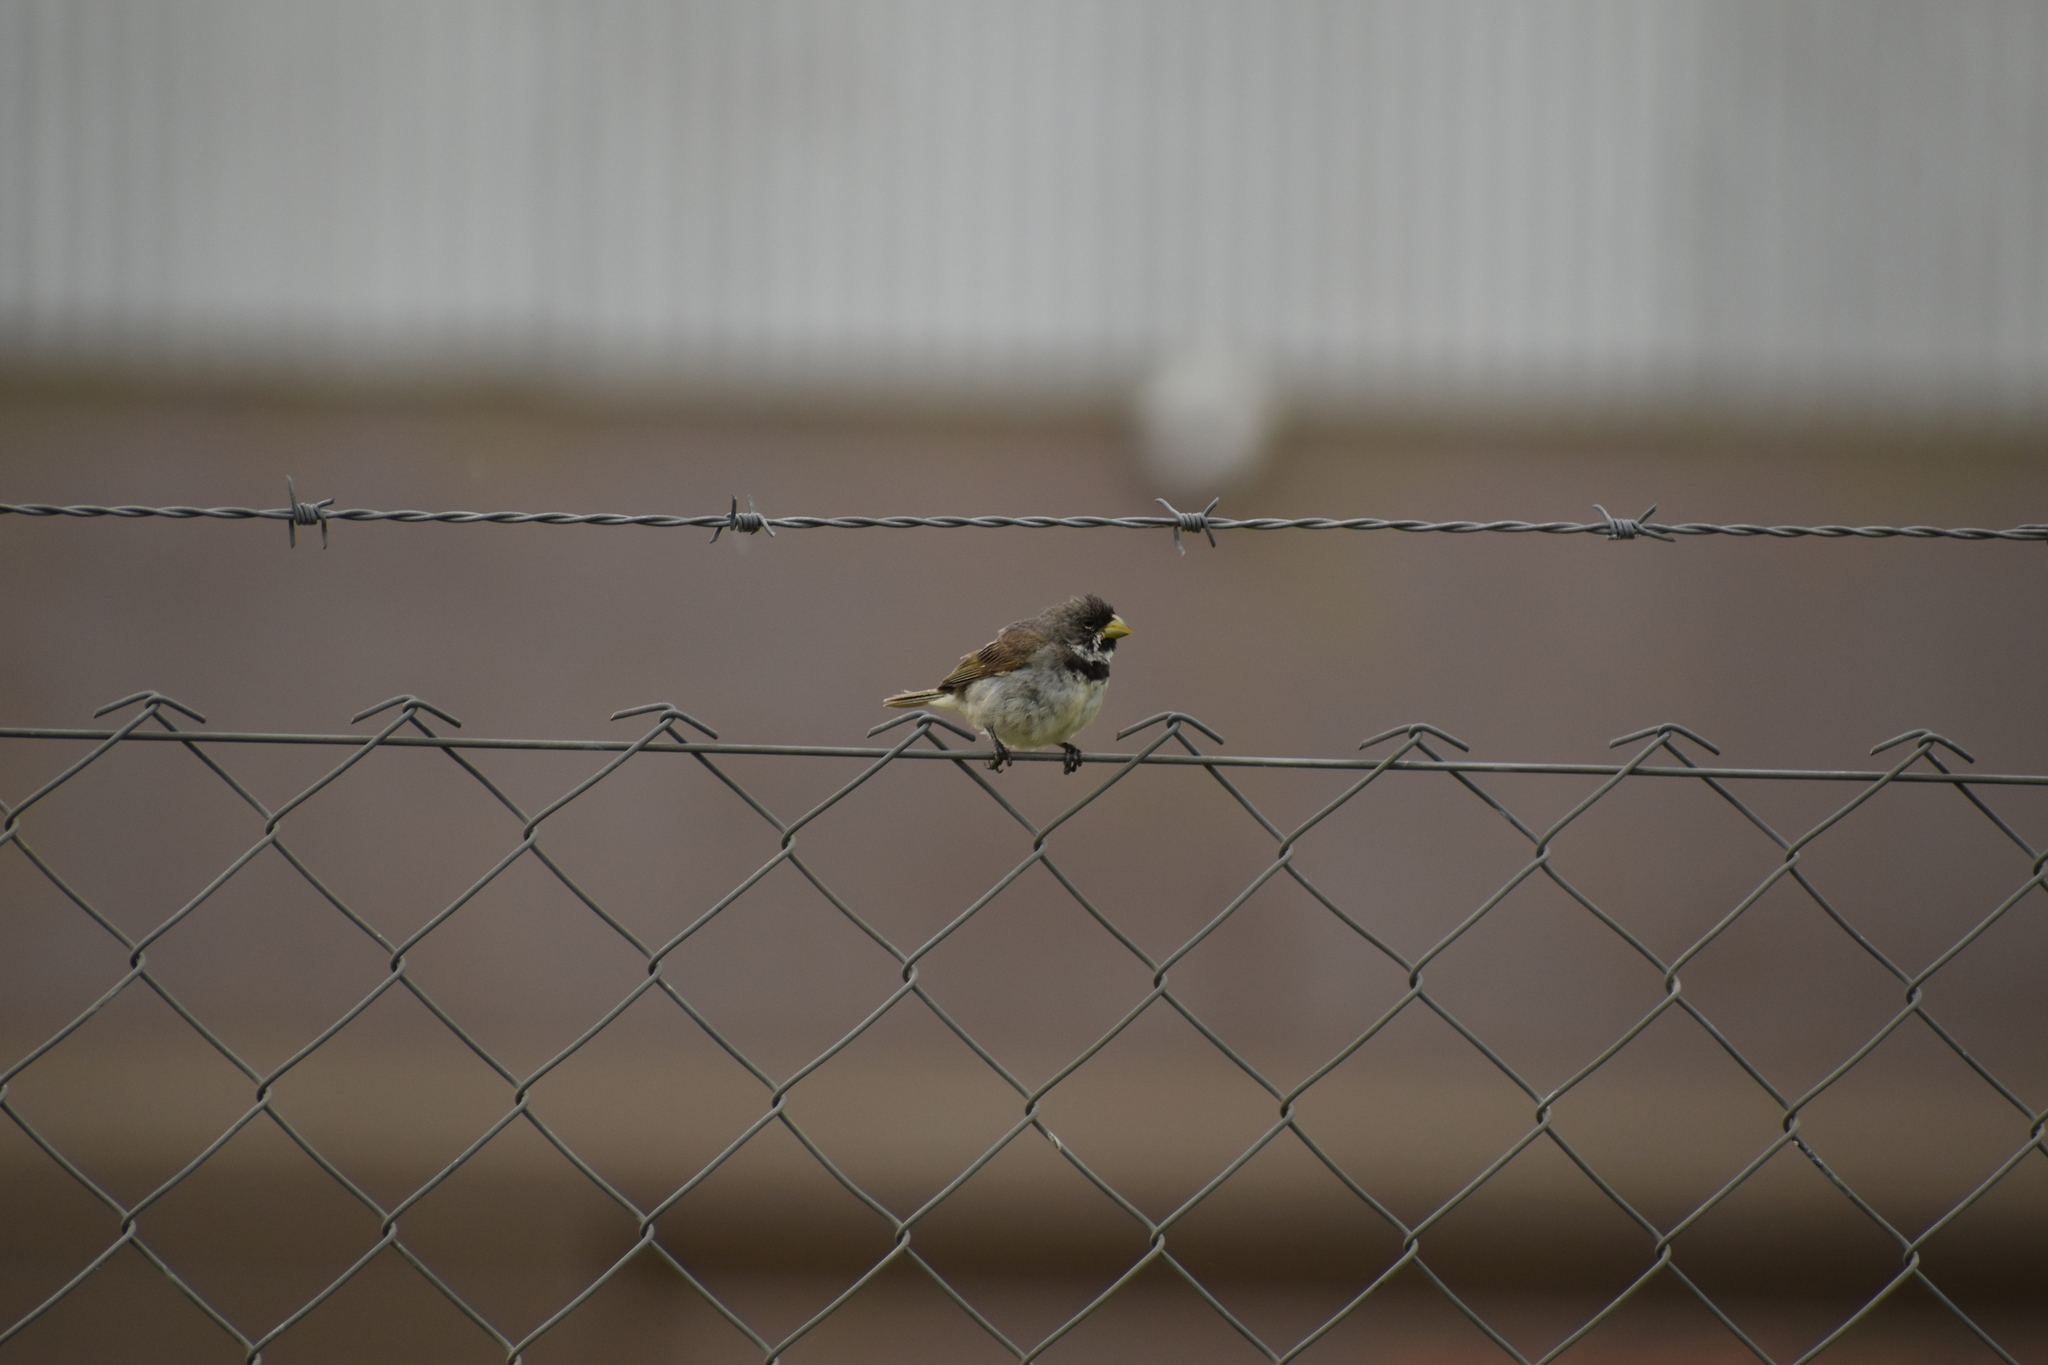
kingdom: Animalia
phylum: Chordata
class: Aves
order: Passeriformes
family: Thraupidae
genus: Sporophila
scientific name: Sporophila caerulescens
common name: Double-collared seedeater
